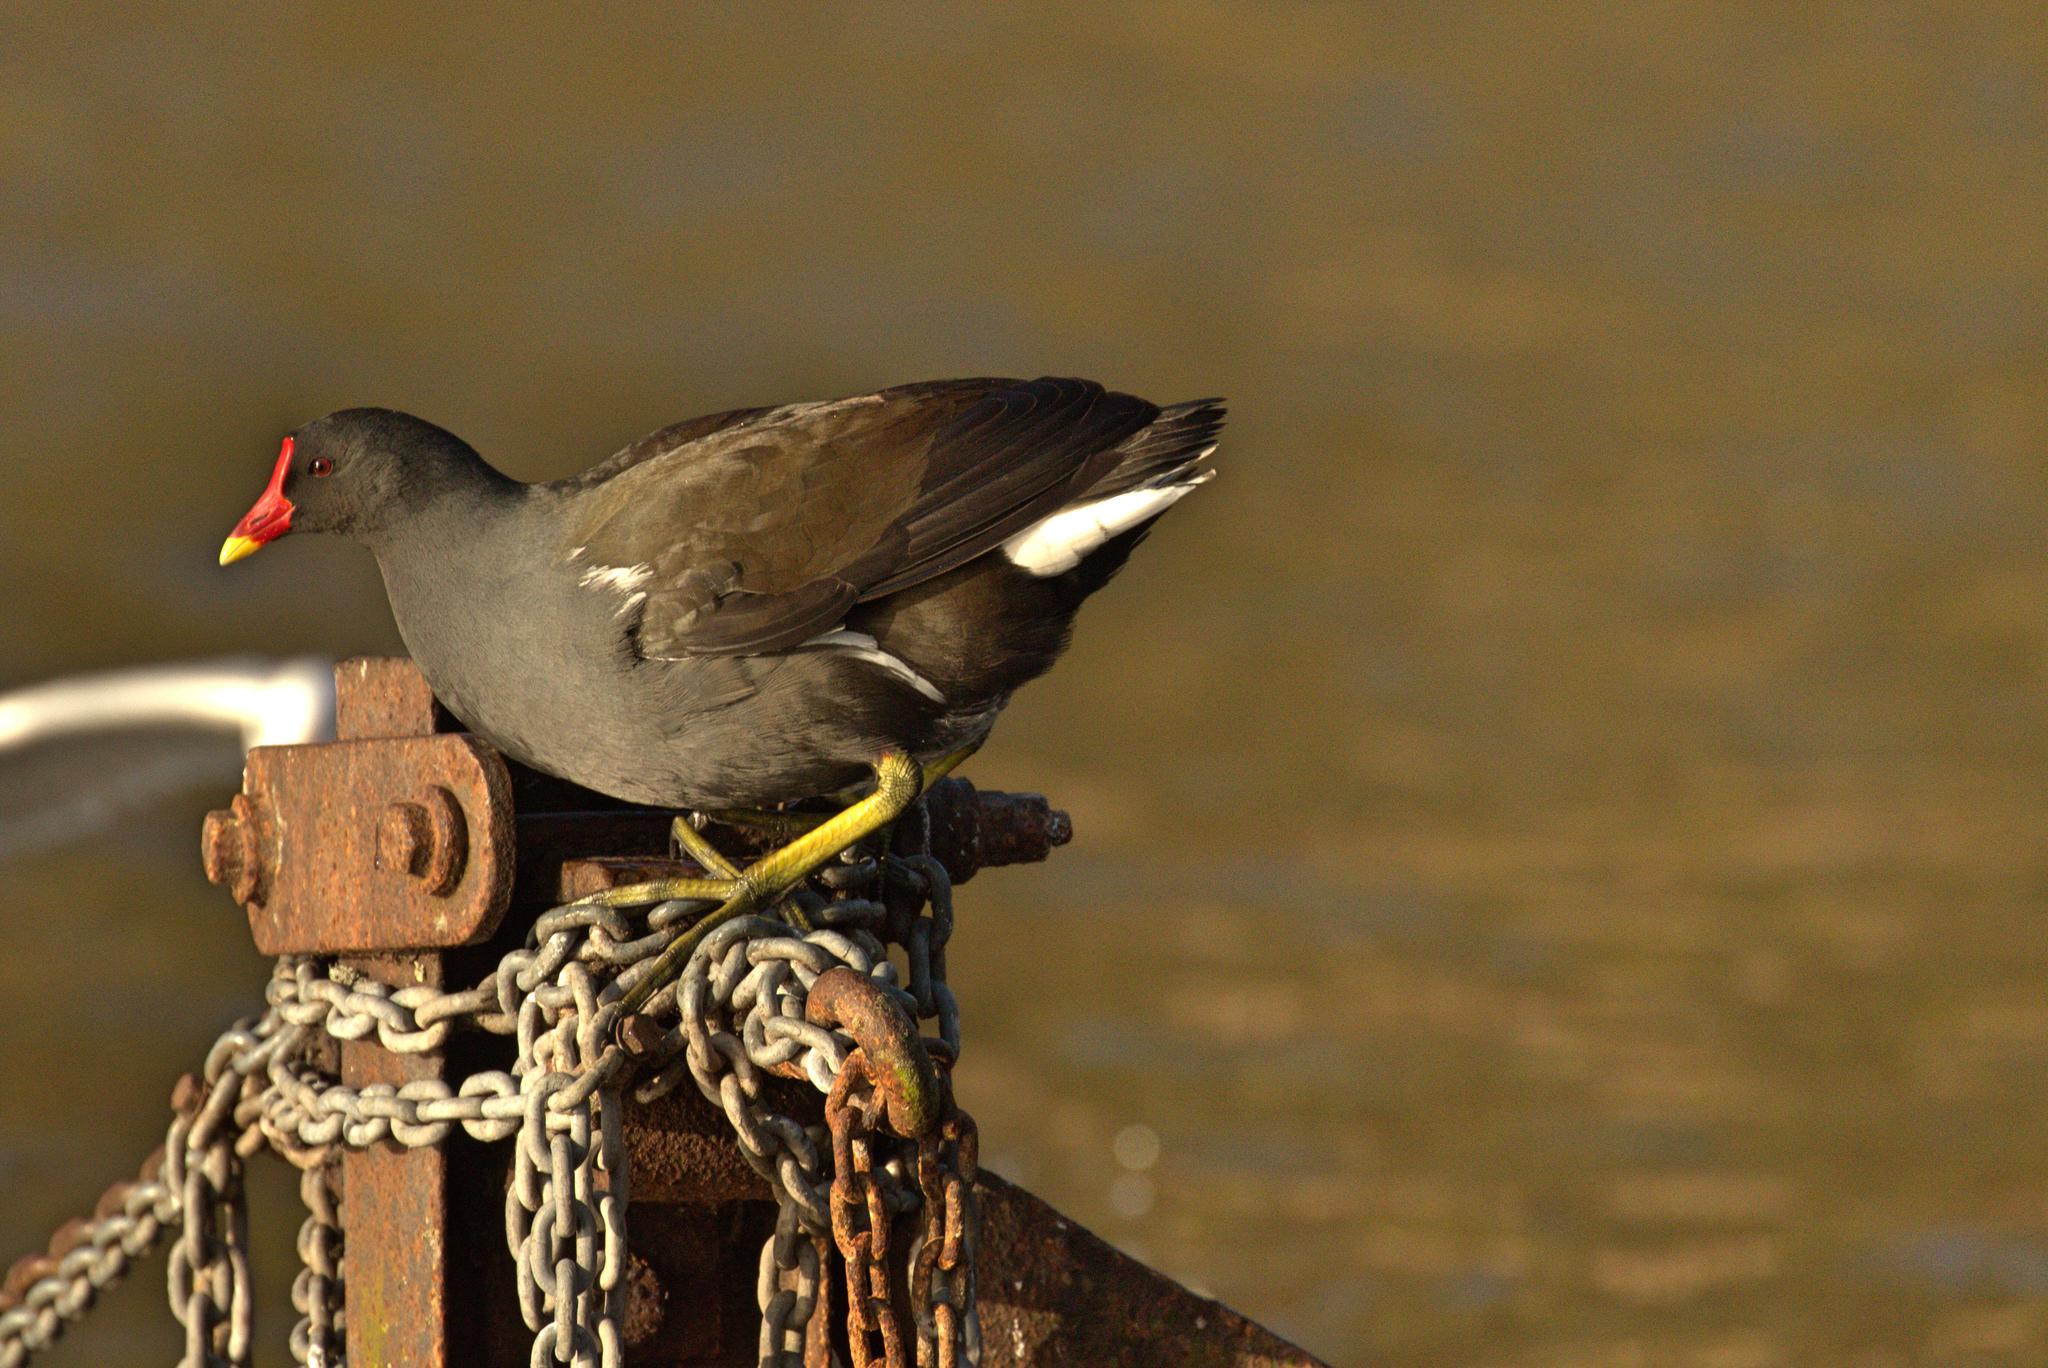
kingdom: Animalia
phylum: Chordata
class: Aves
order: Gruiformes
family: Rallidae
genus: Gallinula
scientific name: Gallinula chloropus
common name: Common moorhen
